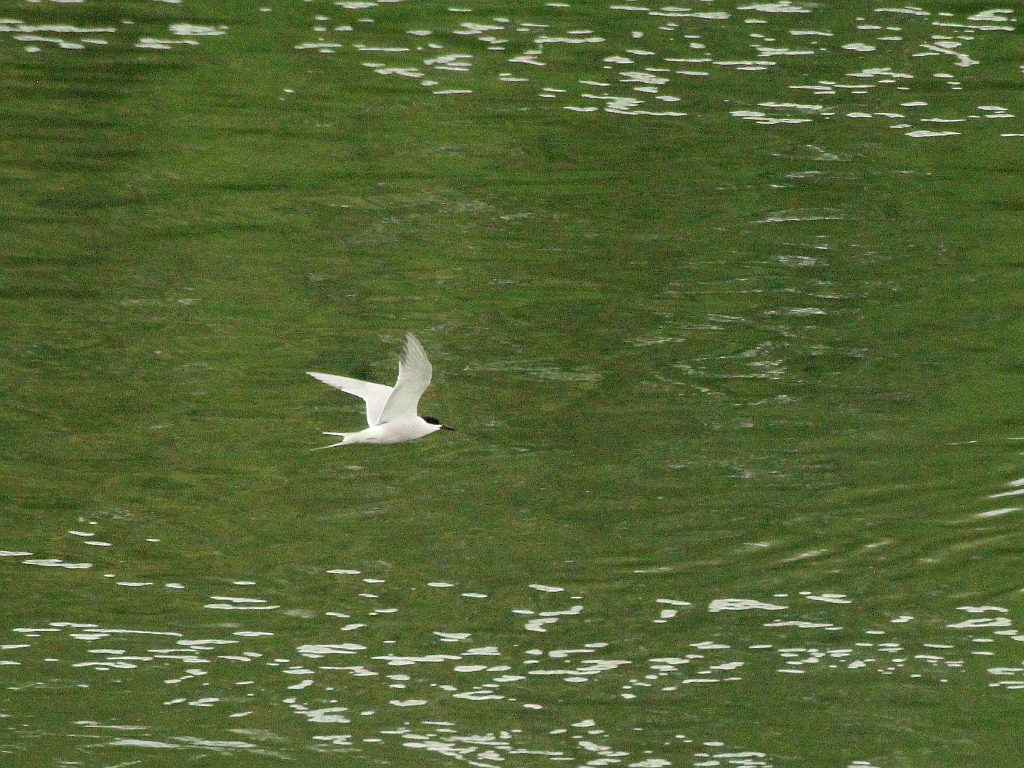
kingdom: Animalia
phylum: Chordata
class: Aves
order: Charadriiformes
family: Laridae
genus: Sterna
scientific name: Sterna hirundo
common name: Common tern
